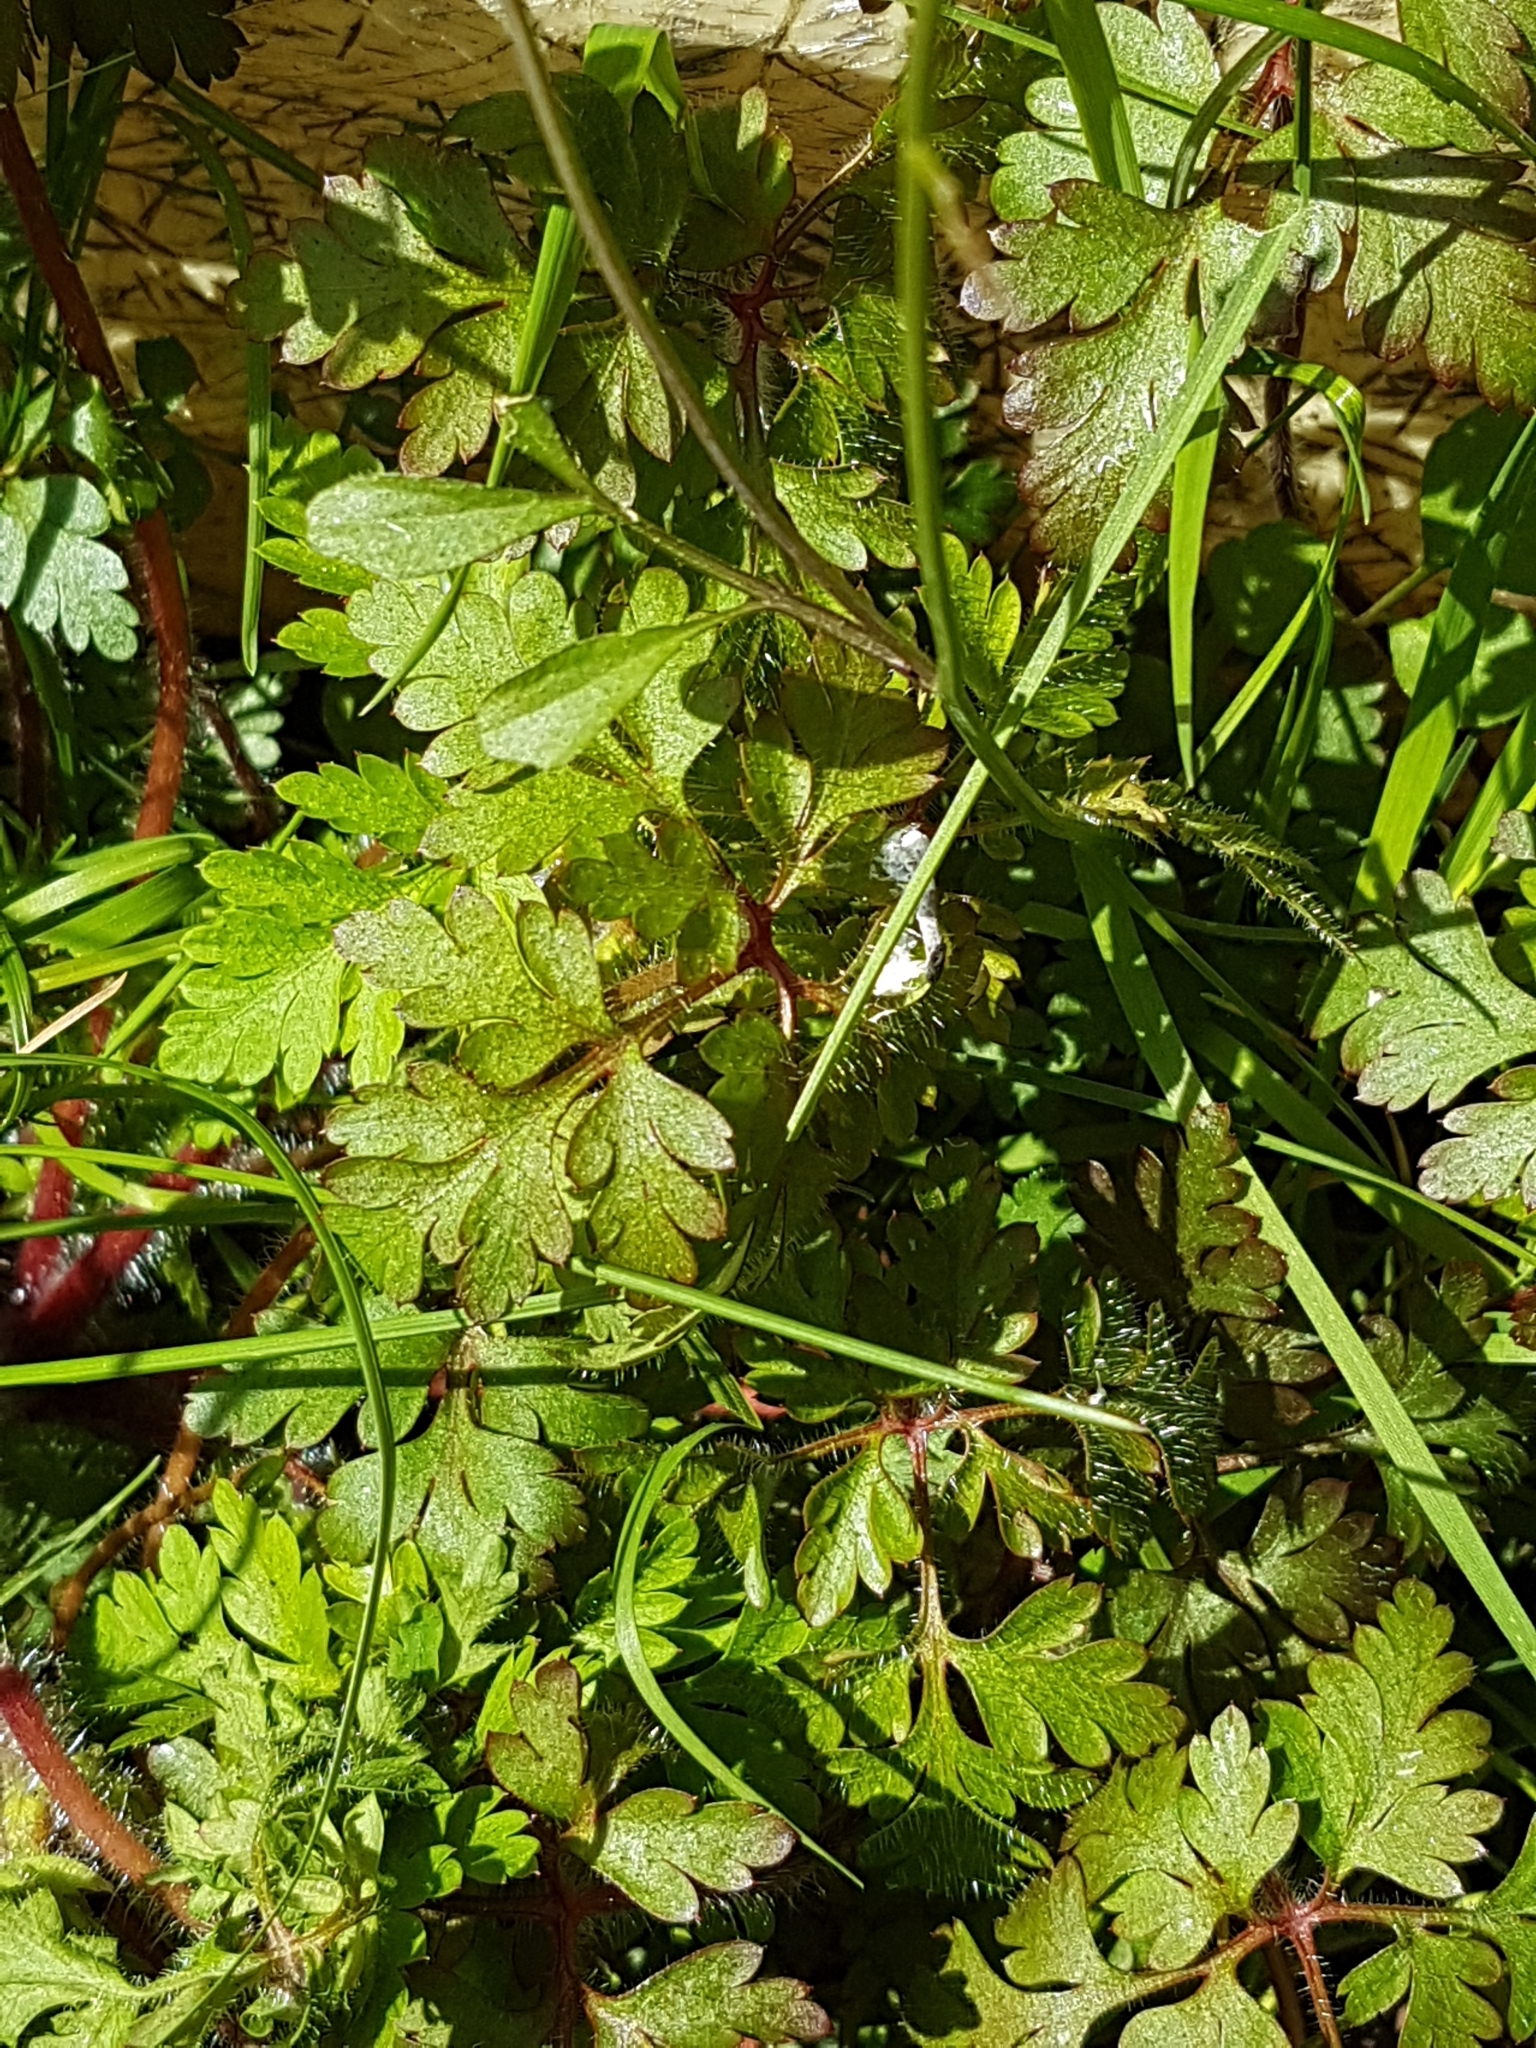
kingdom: Plantae
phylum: Tracheophyta
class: Magnoliopsida
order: Geraniales
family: Geraniaceae
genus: Geranium
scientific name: Geranium robertianum
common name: Herb-robert
